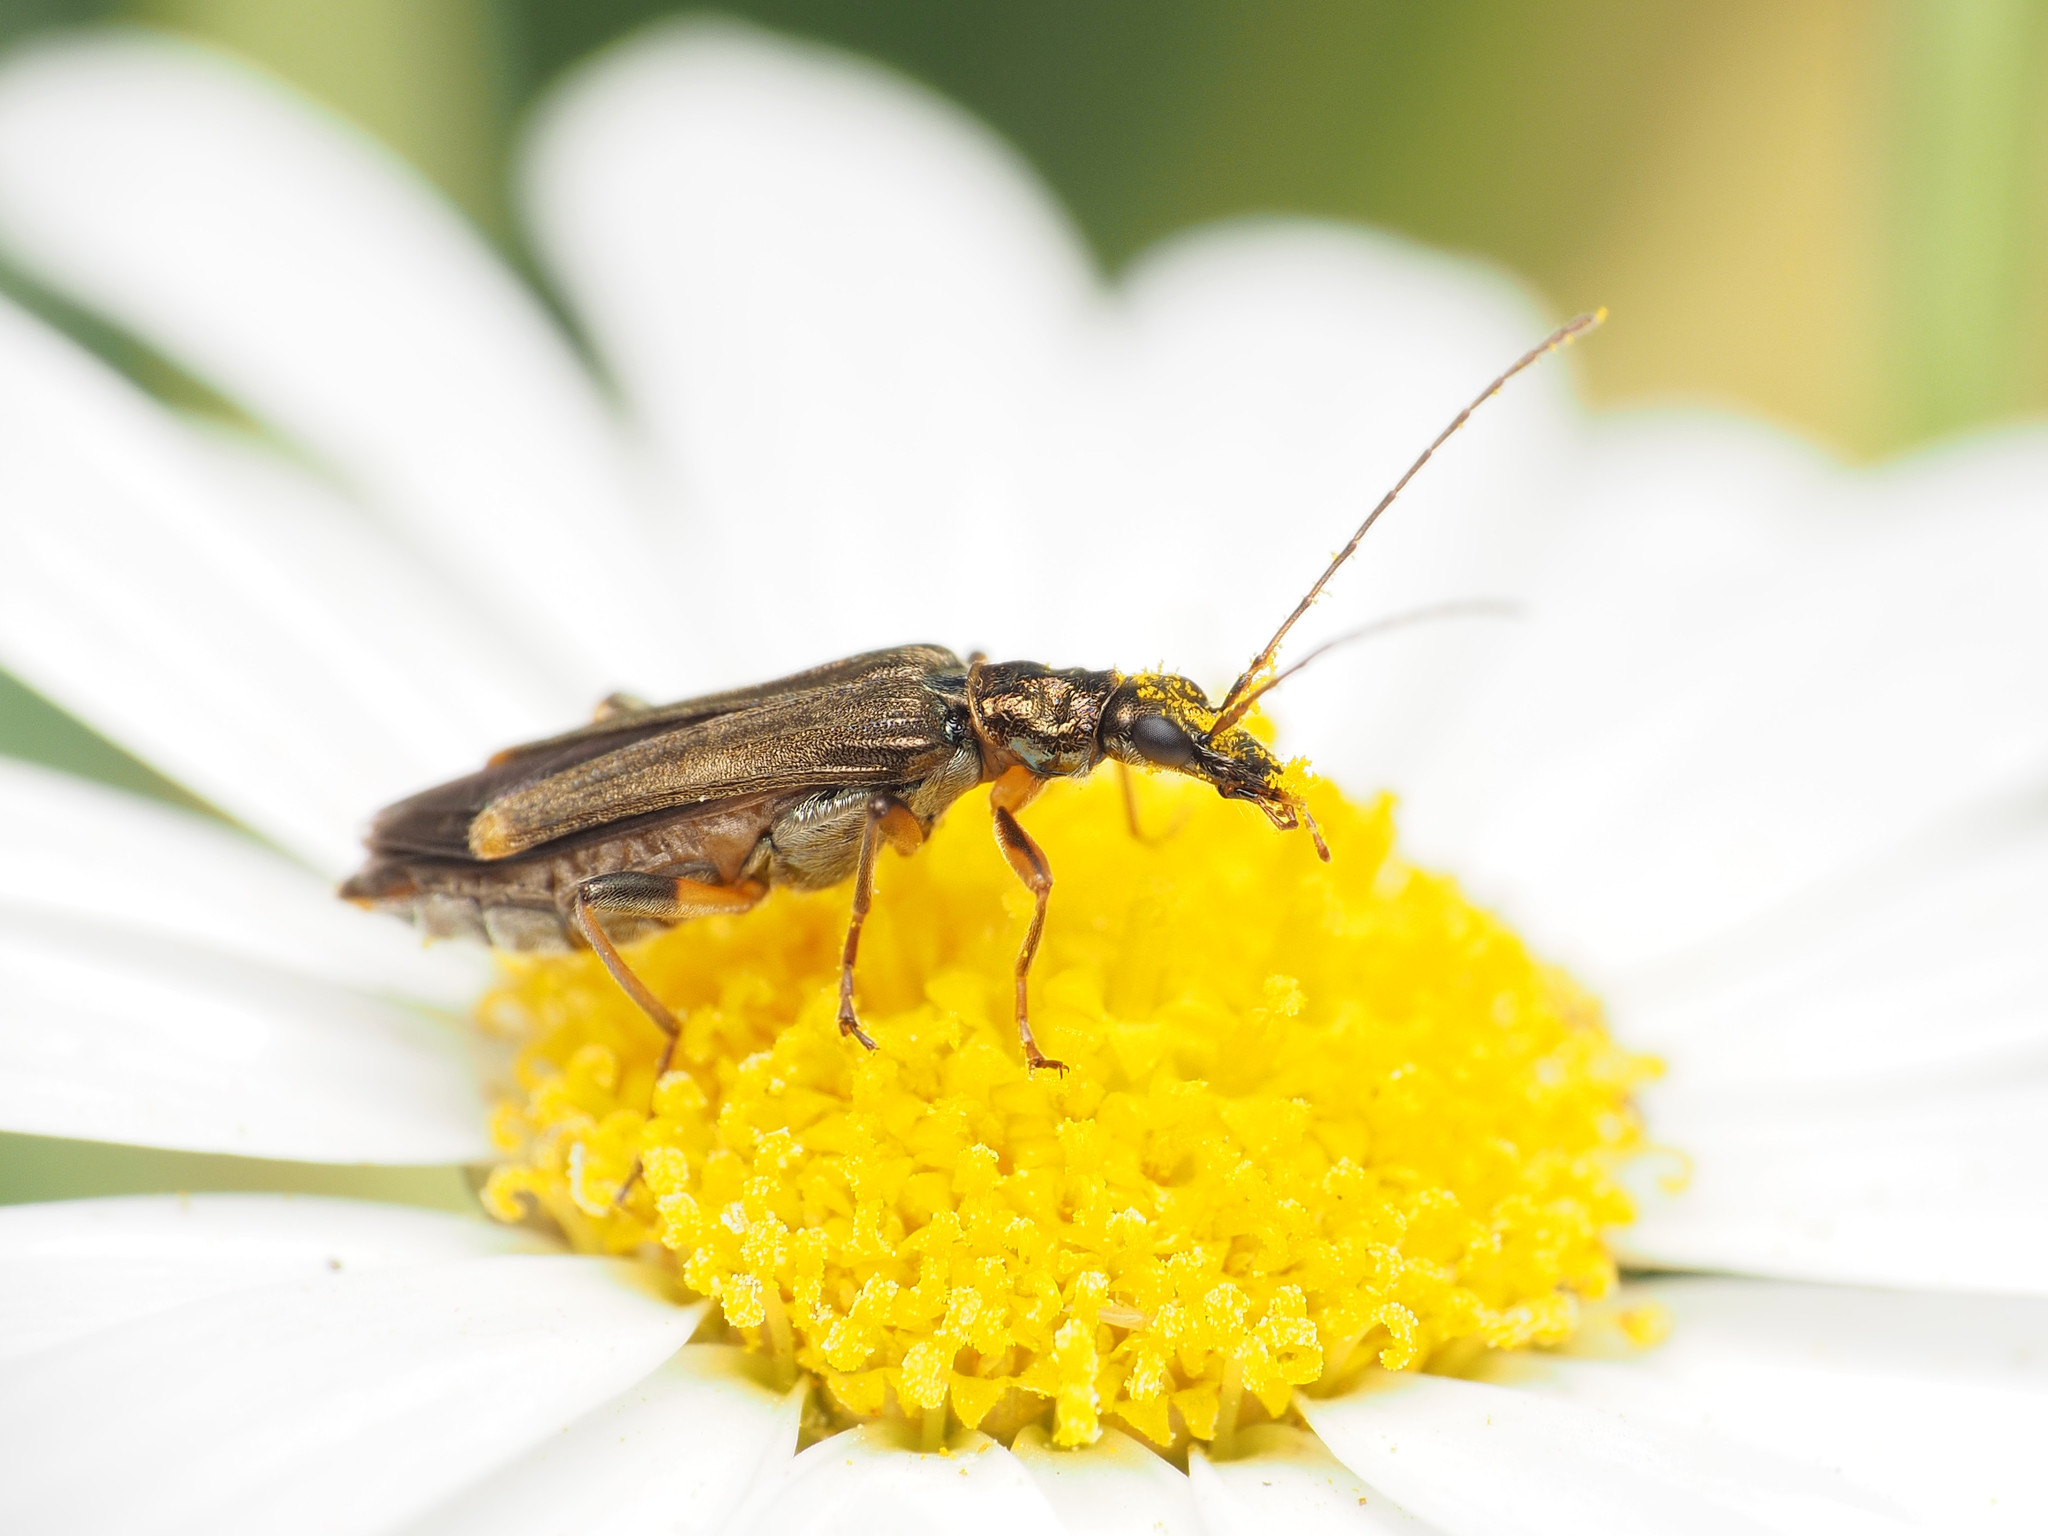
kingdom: Animalia
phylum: Arthropoda
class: Insecta
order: Coleoptera
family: Oedemeridae
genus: Oedemera
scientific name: Oedemera barbara
